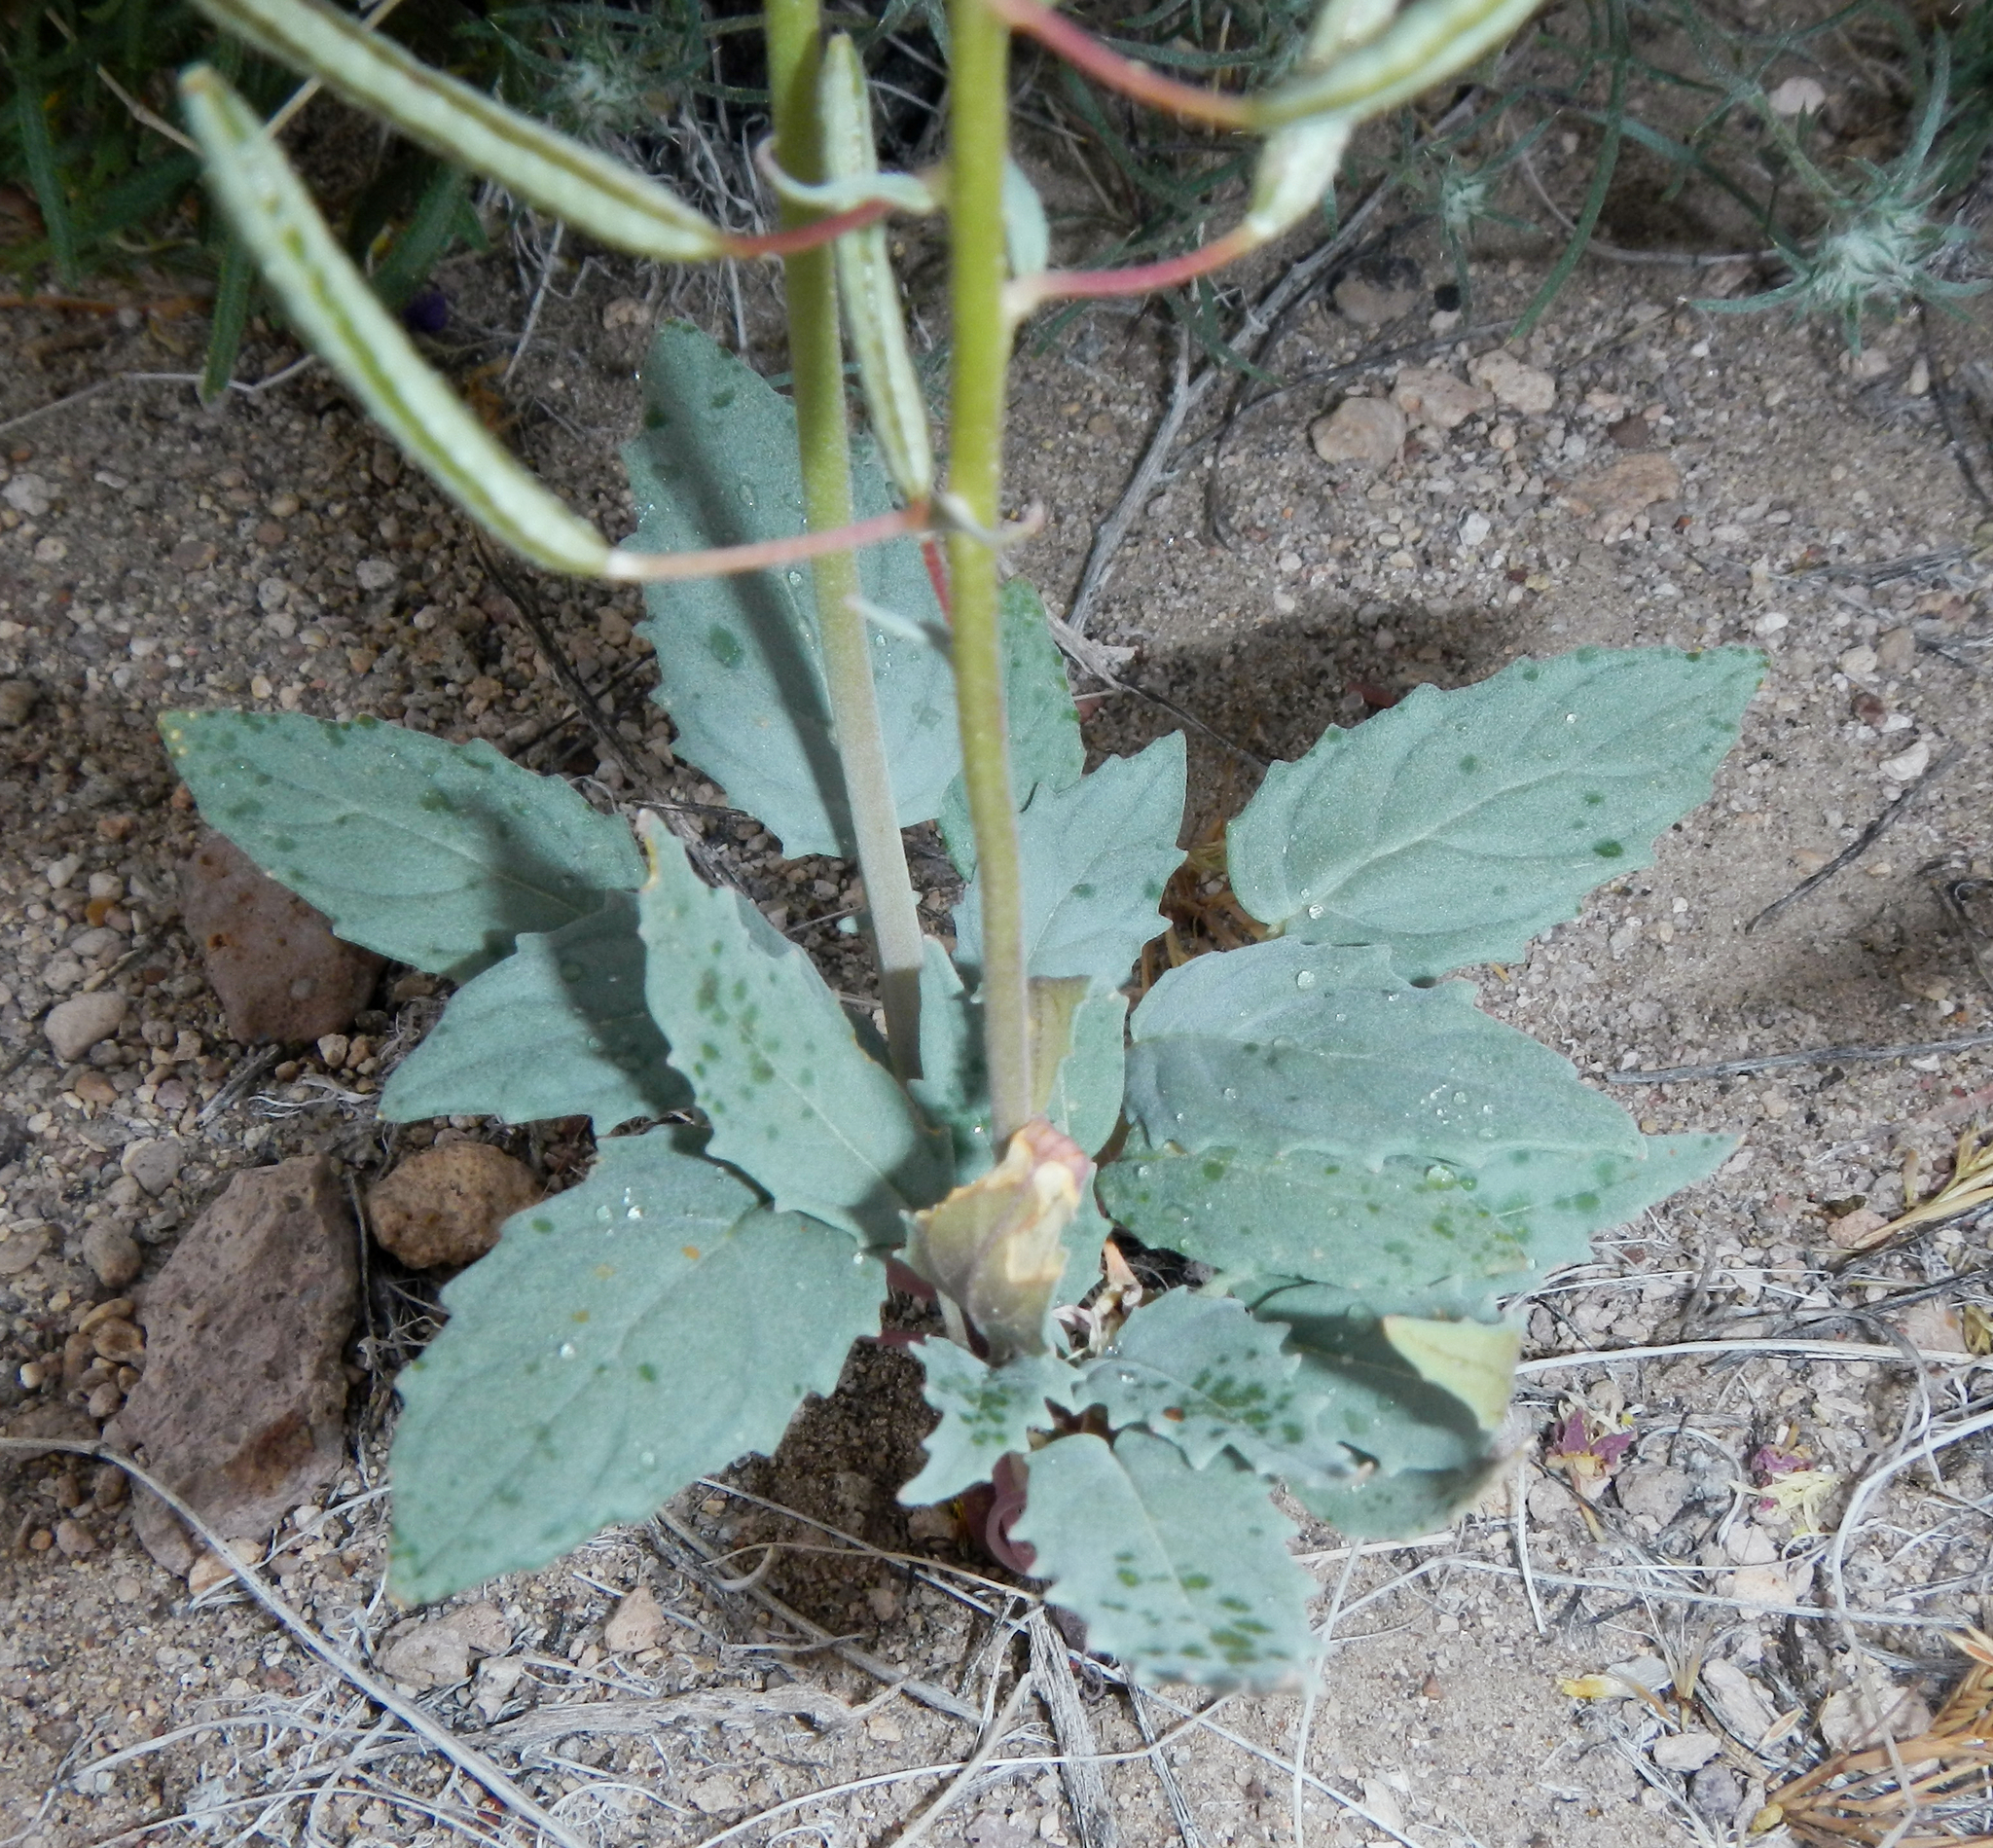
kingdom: Plantae
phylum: Tracheophyta
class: Magnoliopsida
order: Myrtales
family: Onagraceae
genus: Chylismia
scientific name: Chylismia claviformis
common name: Browneyes
